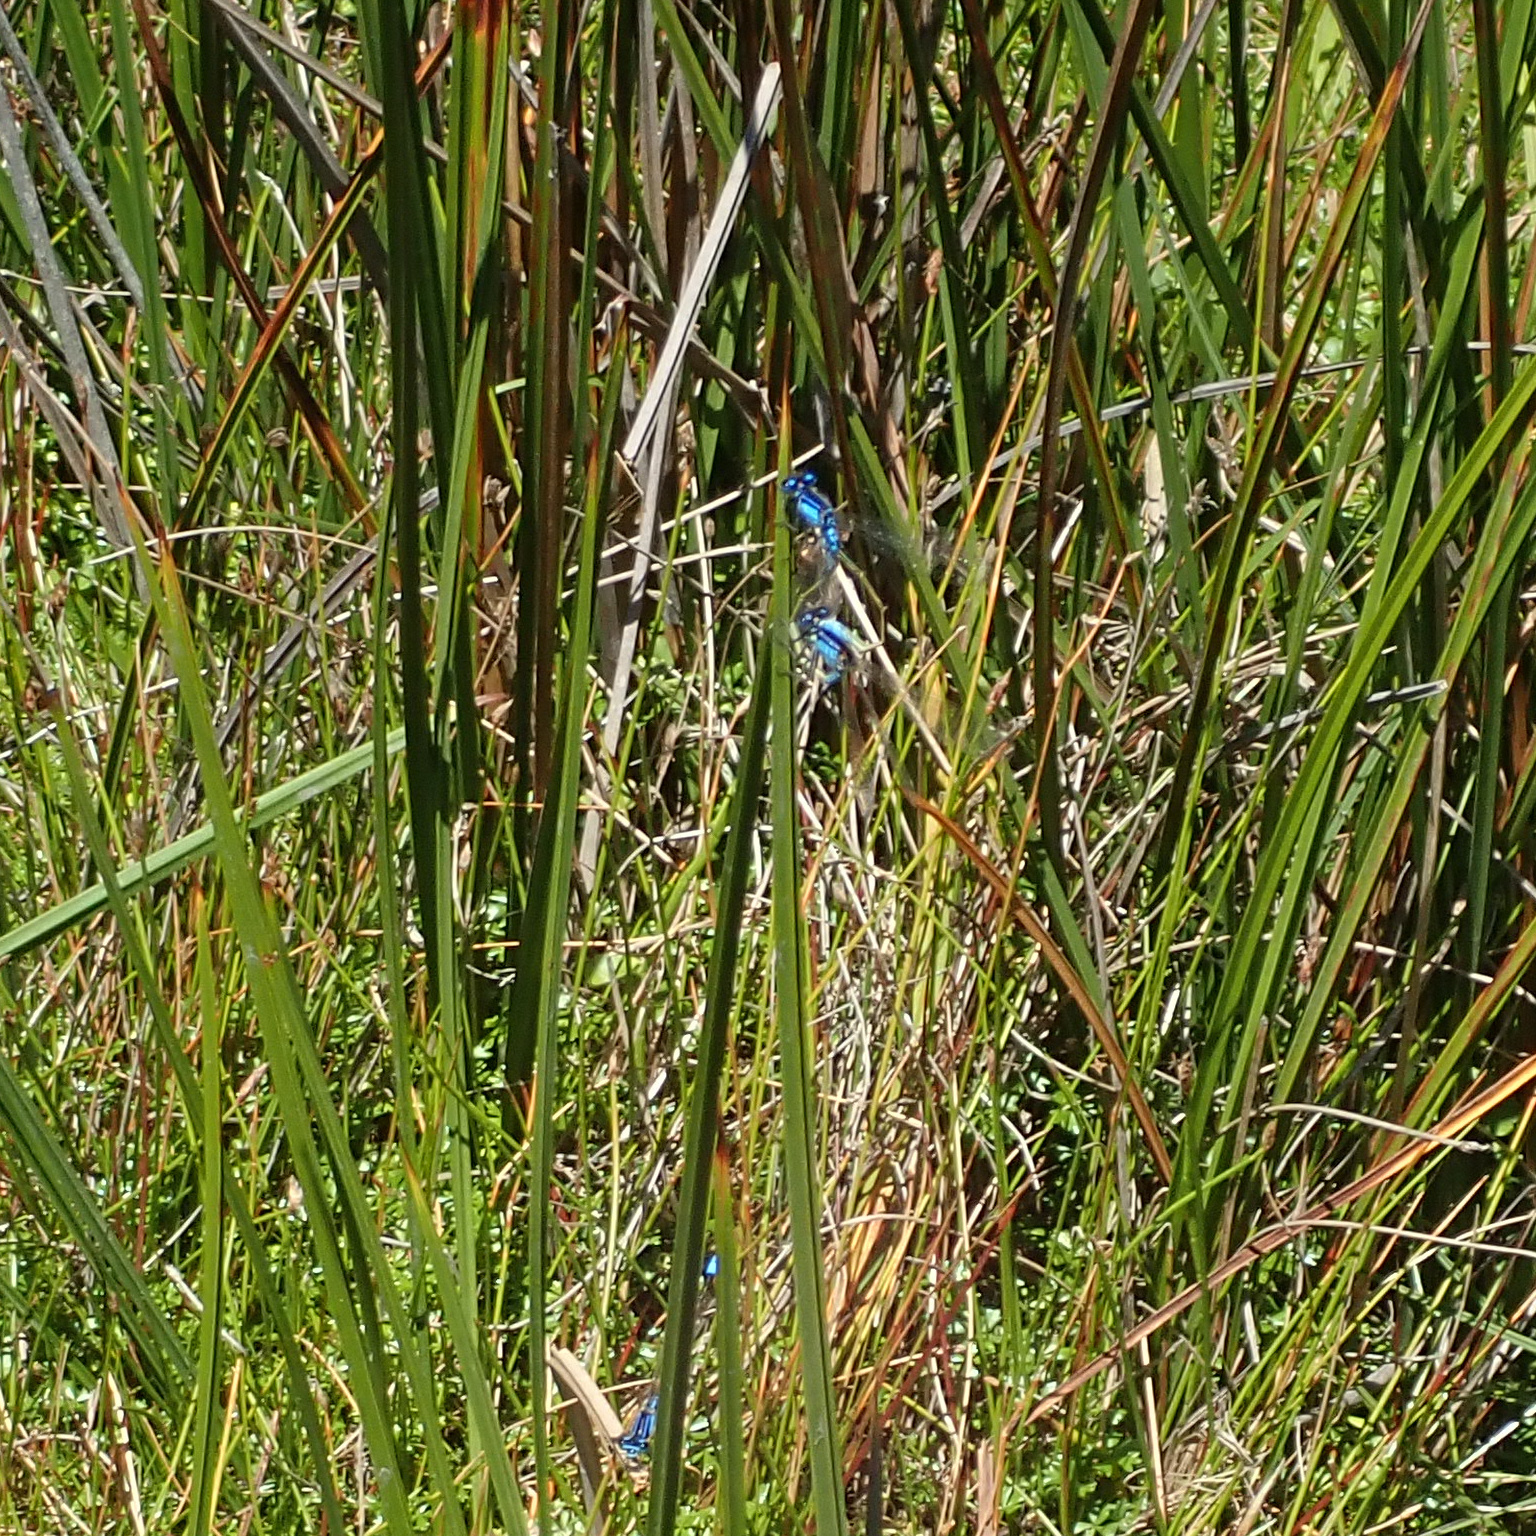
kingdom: Animalia
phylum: Arthropoda
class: Insecta
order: Odonata
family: Coenagrionidae
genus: Ischnura
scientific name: Ischnura heterosticta
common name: Common bluetail
